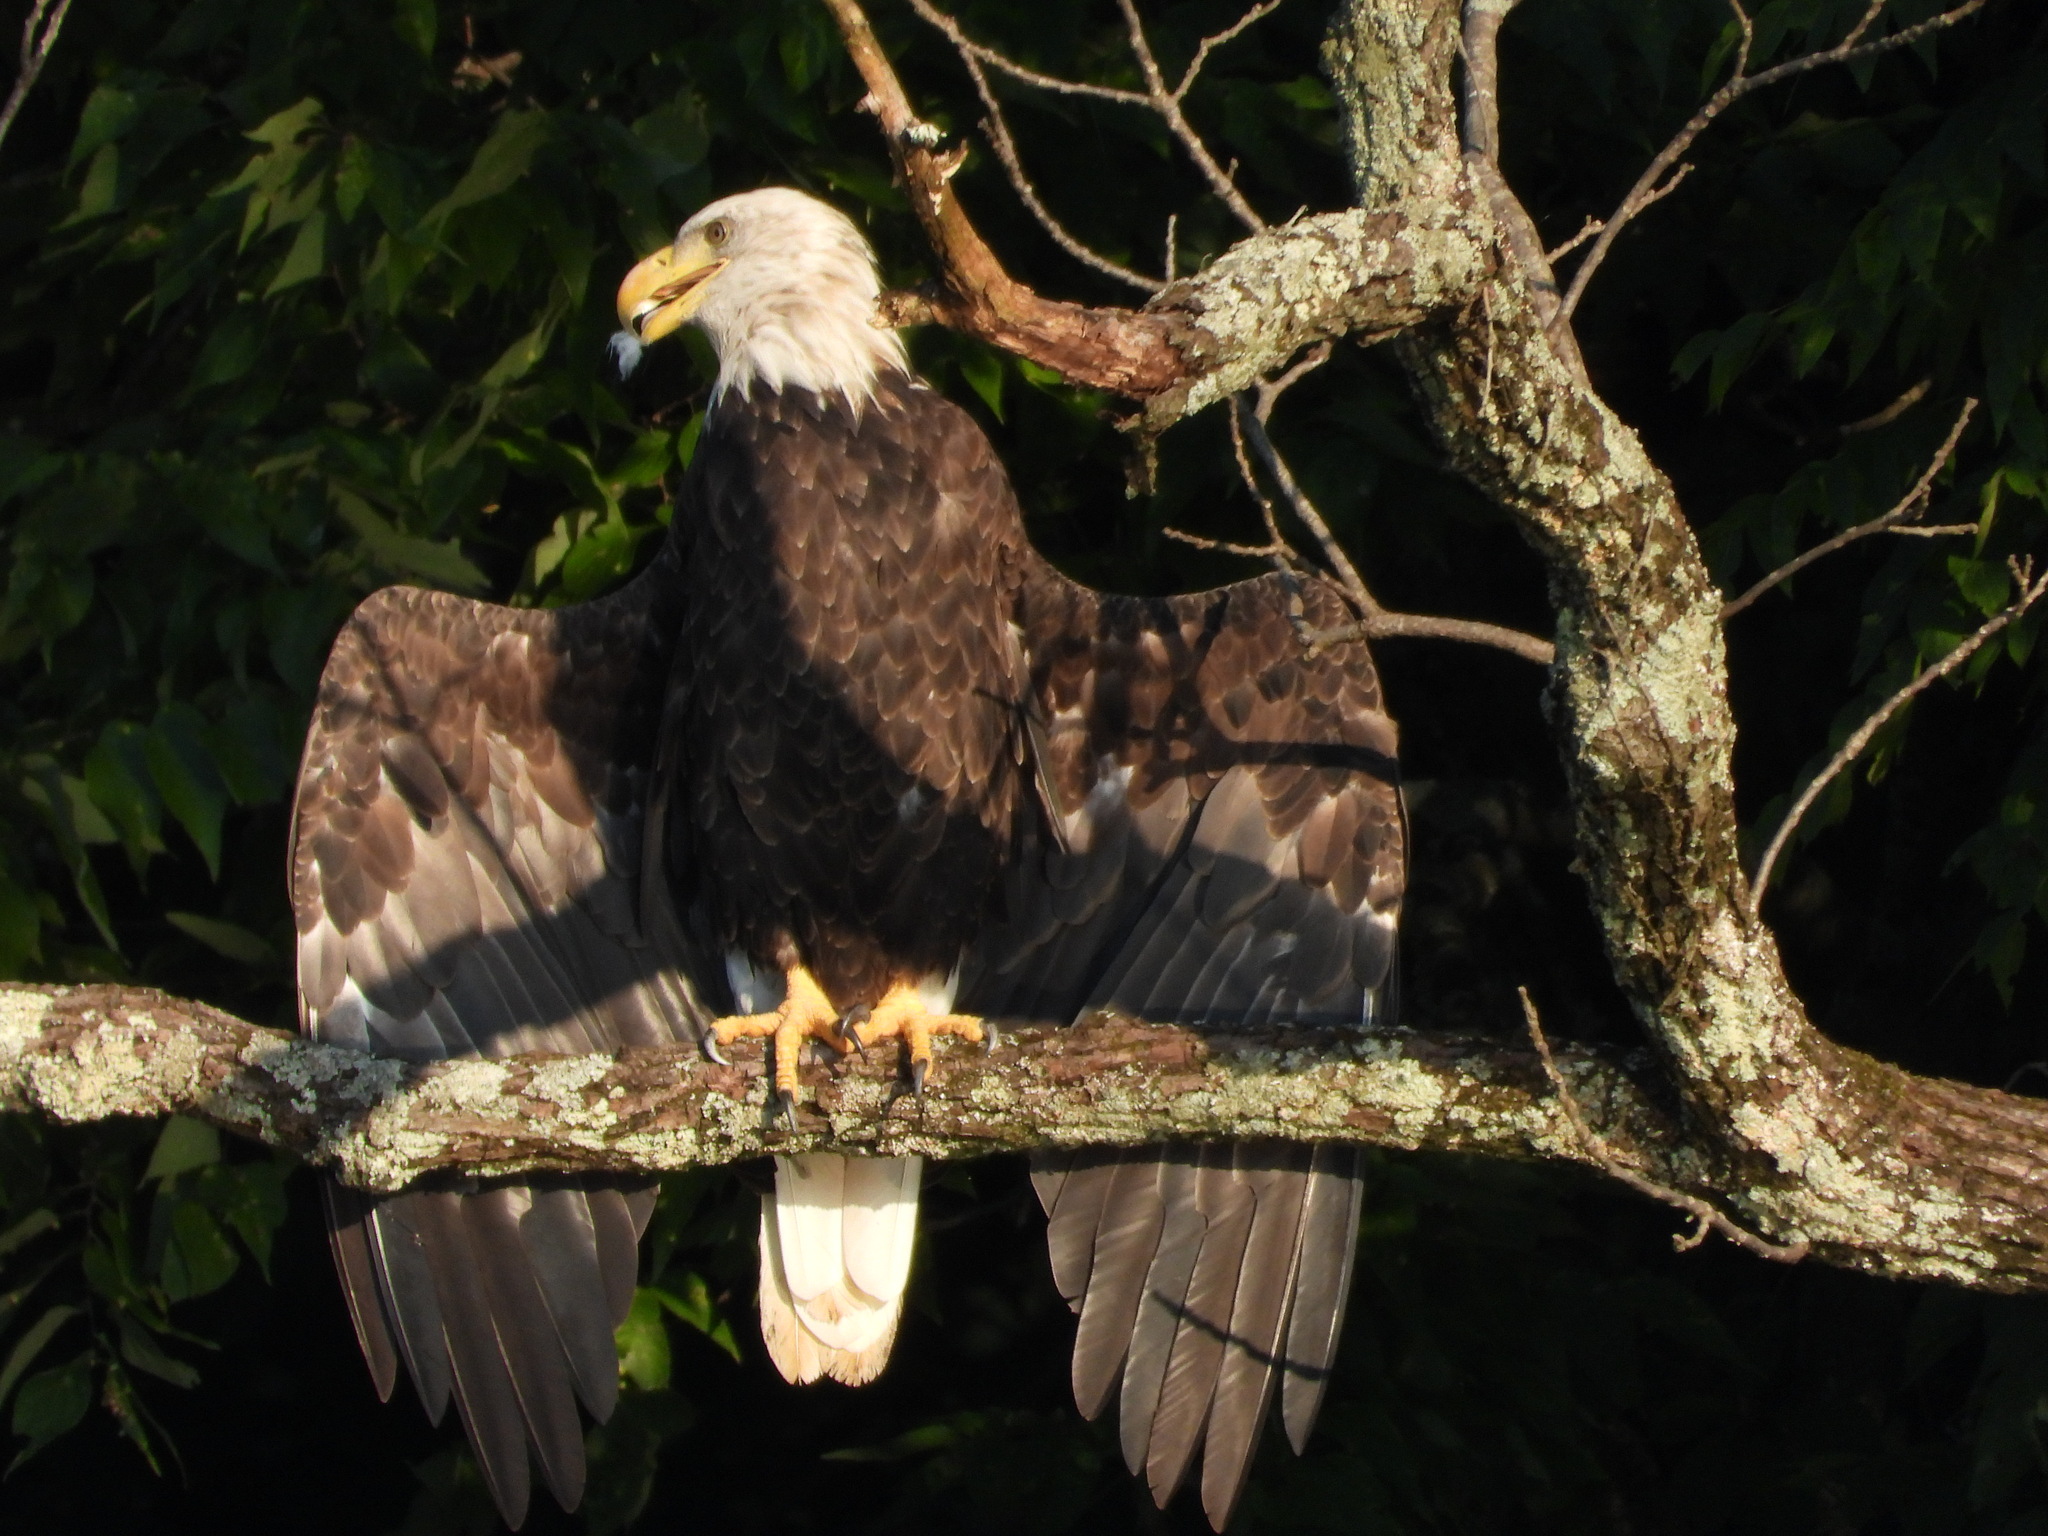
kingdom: Animalia
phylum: Chordata
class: Aves
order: Accipitriformes
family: Accipitridae
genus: Haliaeetus
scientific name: Haliaeetus leucocephalus
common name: Bald eagle
